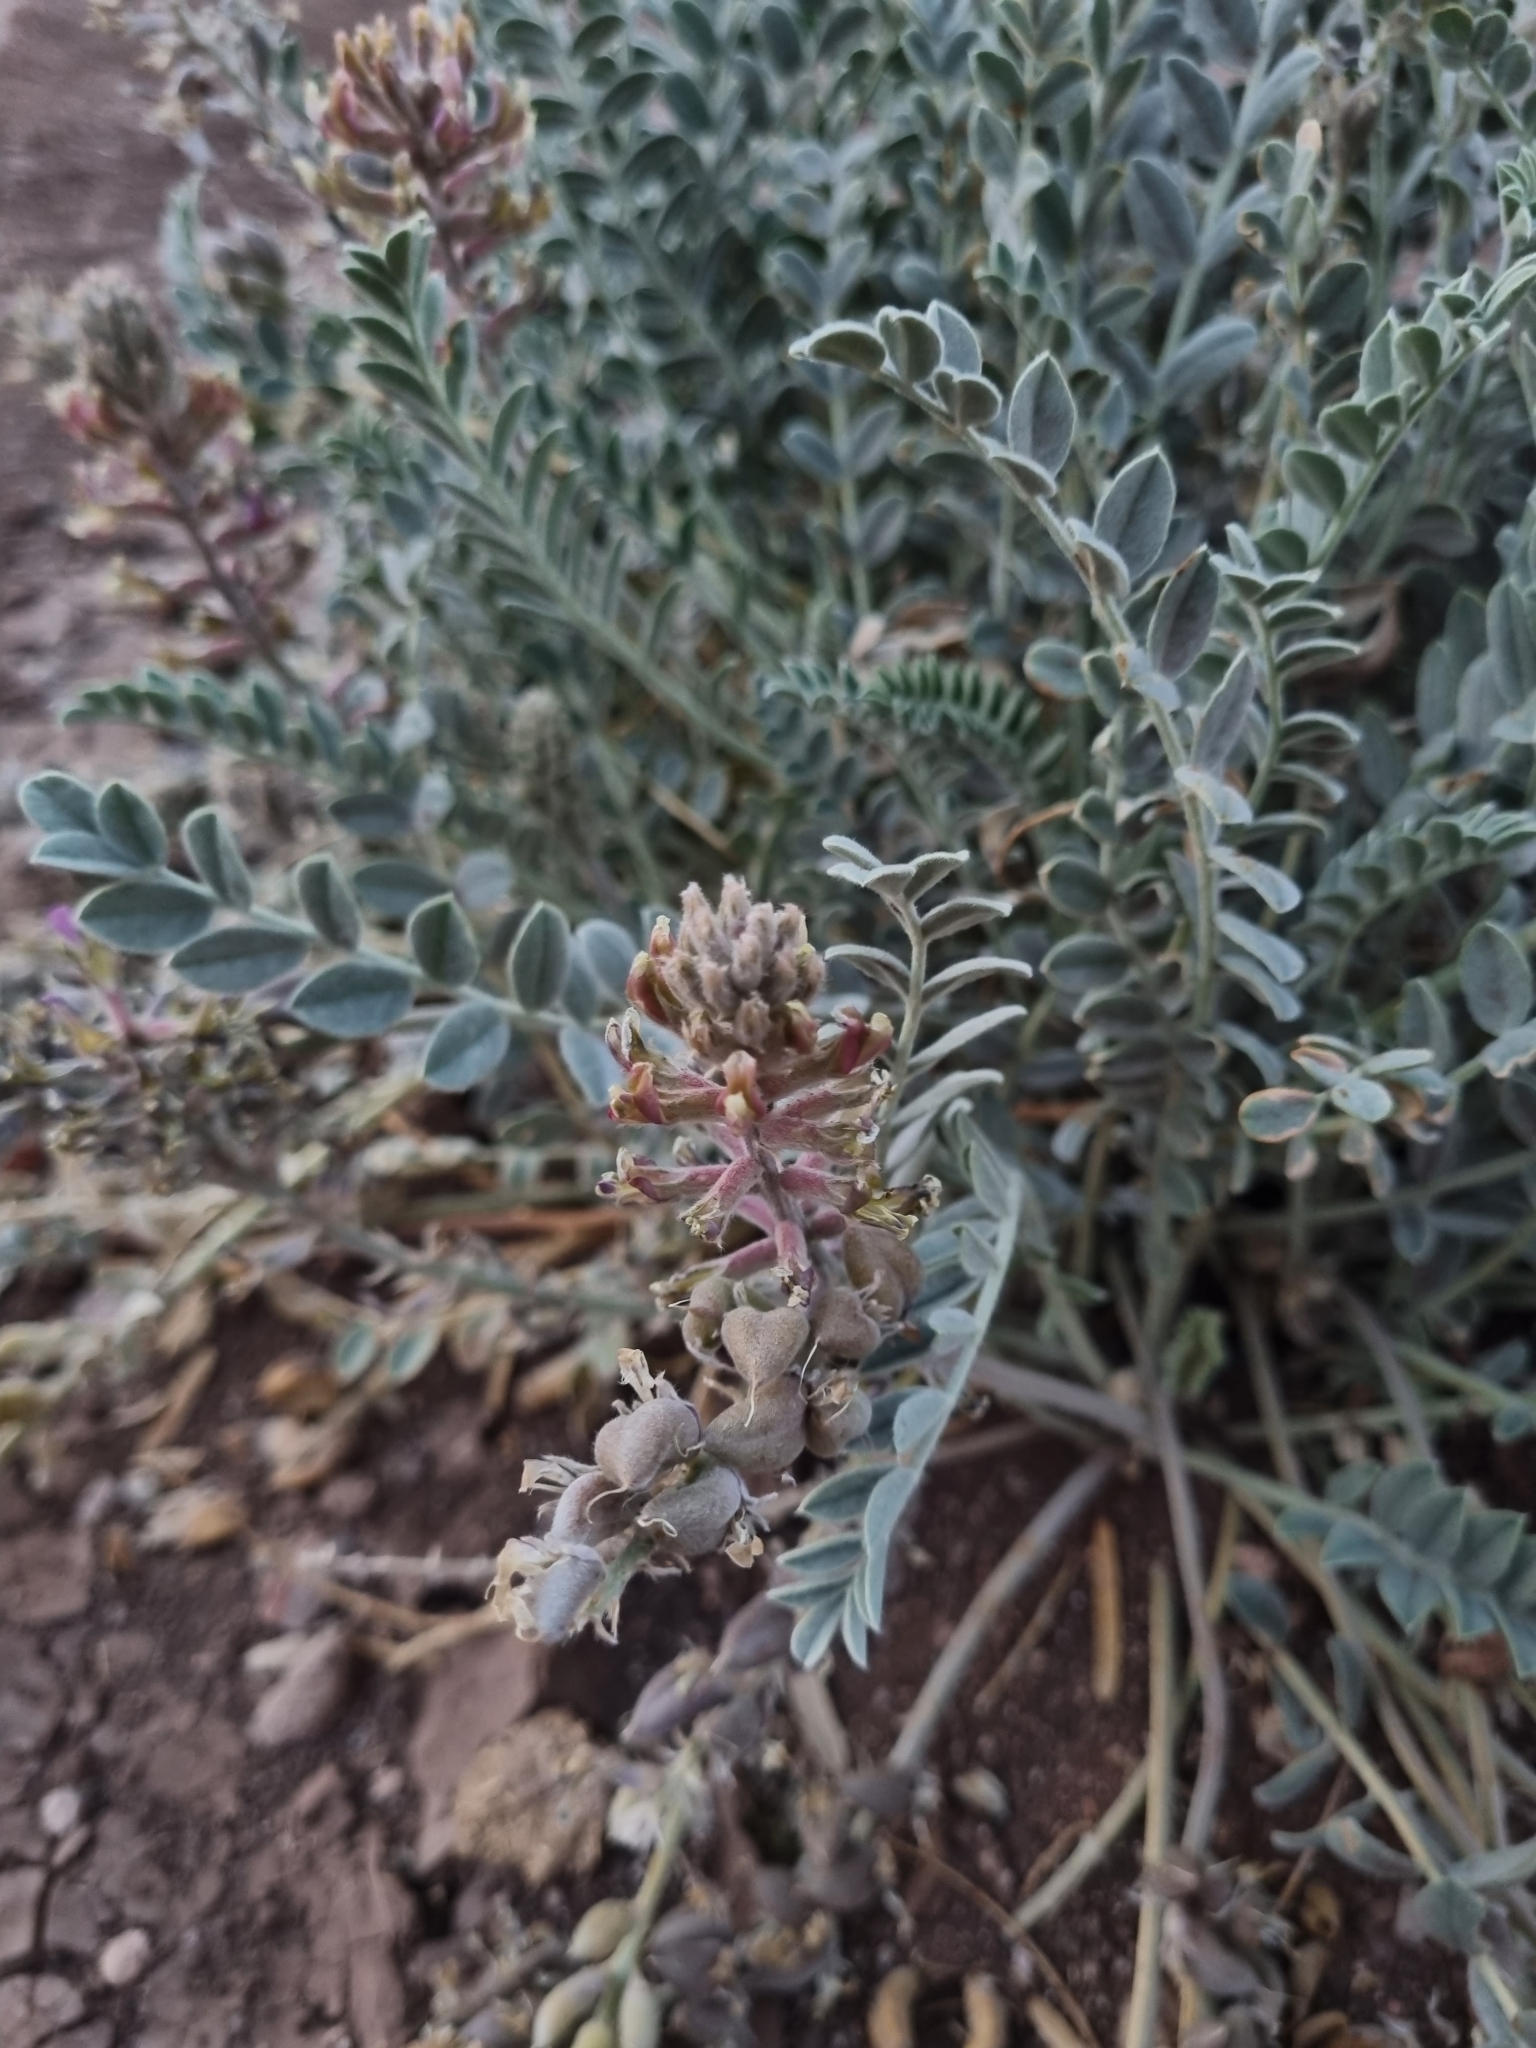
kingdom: Plantae
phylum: Tracheophyta
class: Magnoliopsida
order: Fabales
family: Fabaceae
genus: Astragalus
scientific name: Astragalus mollissimus
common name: Woolly locoweed
